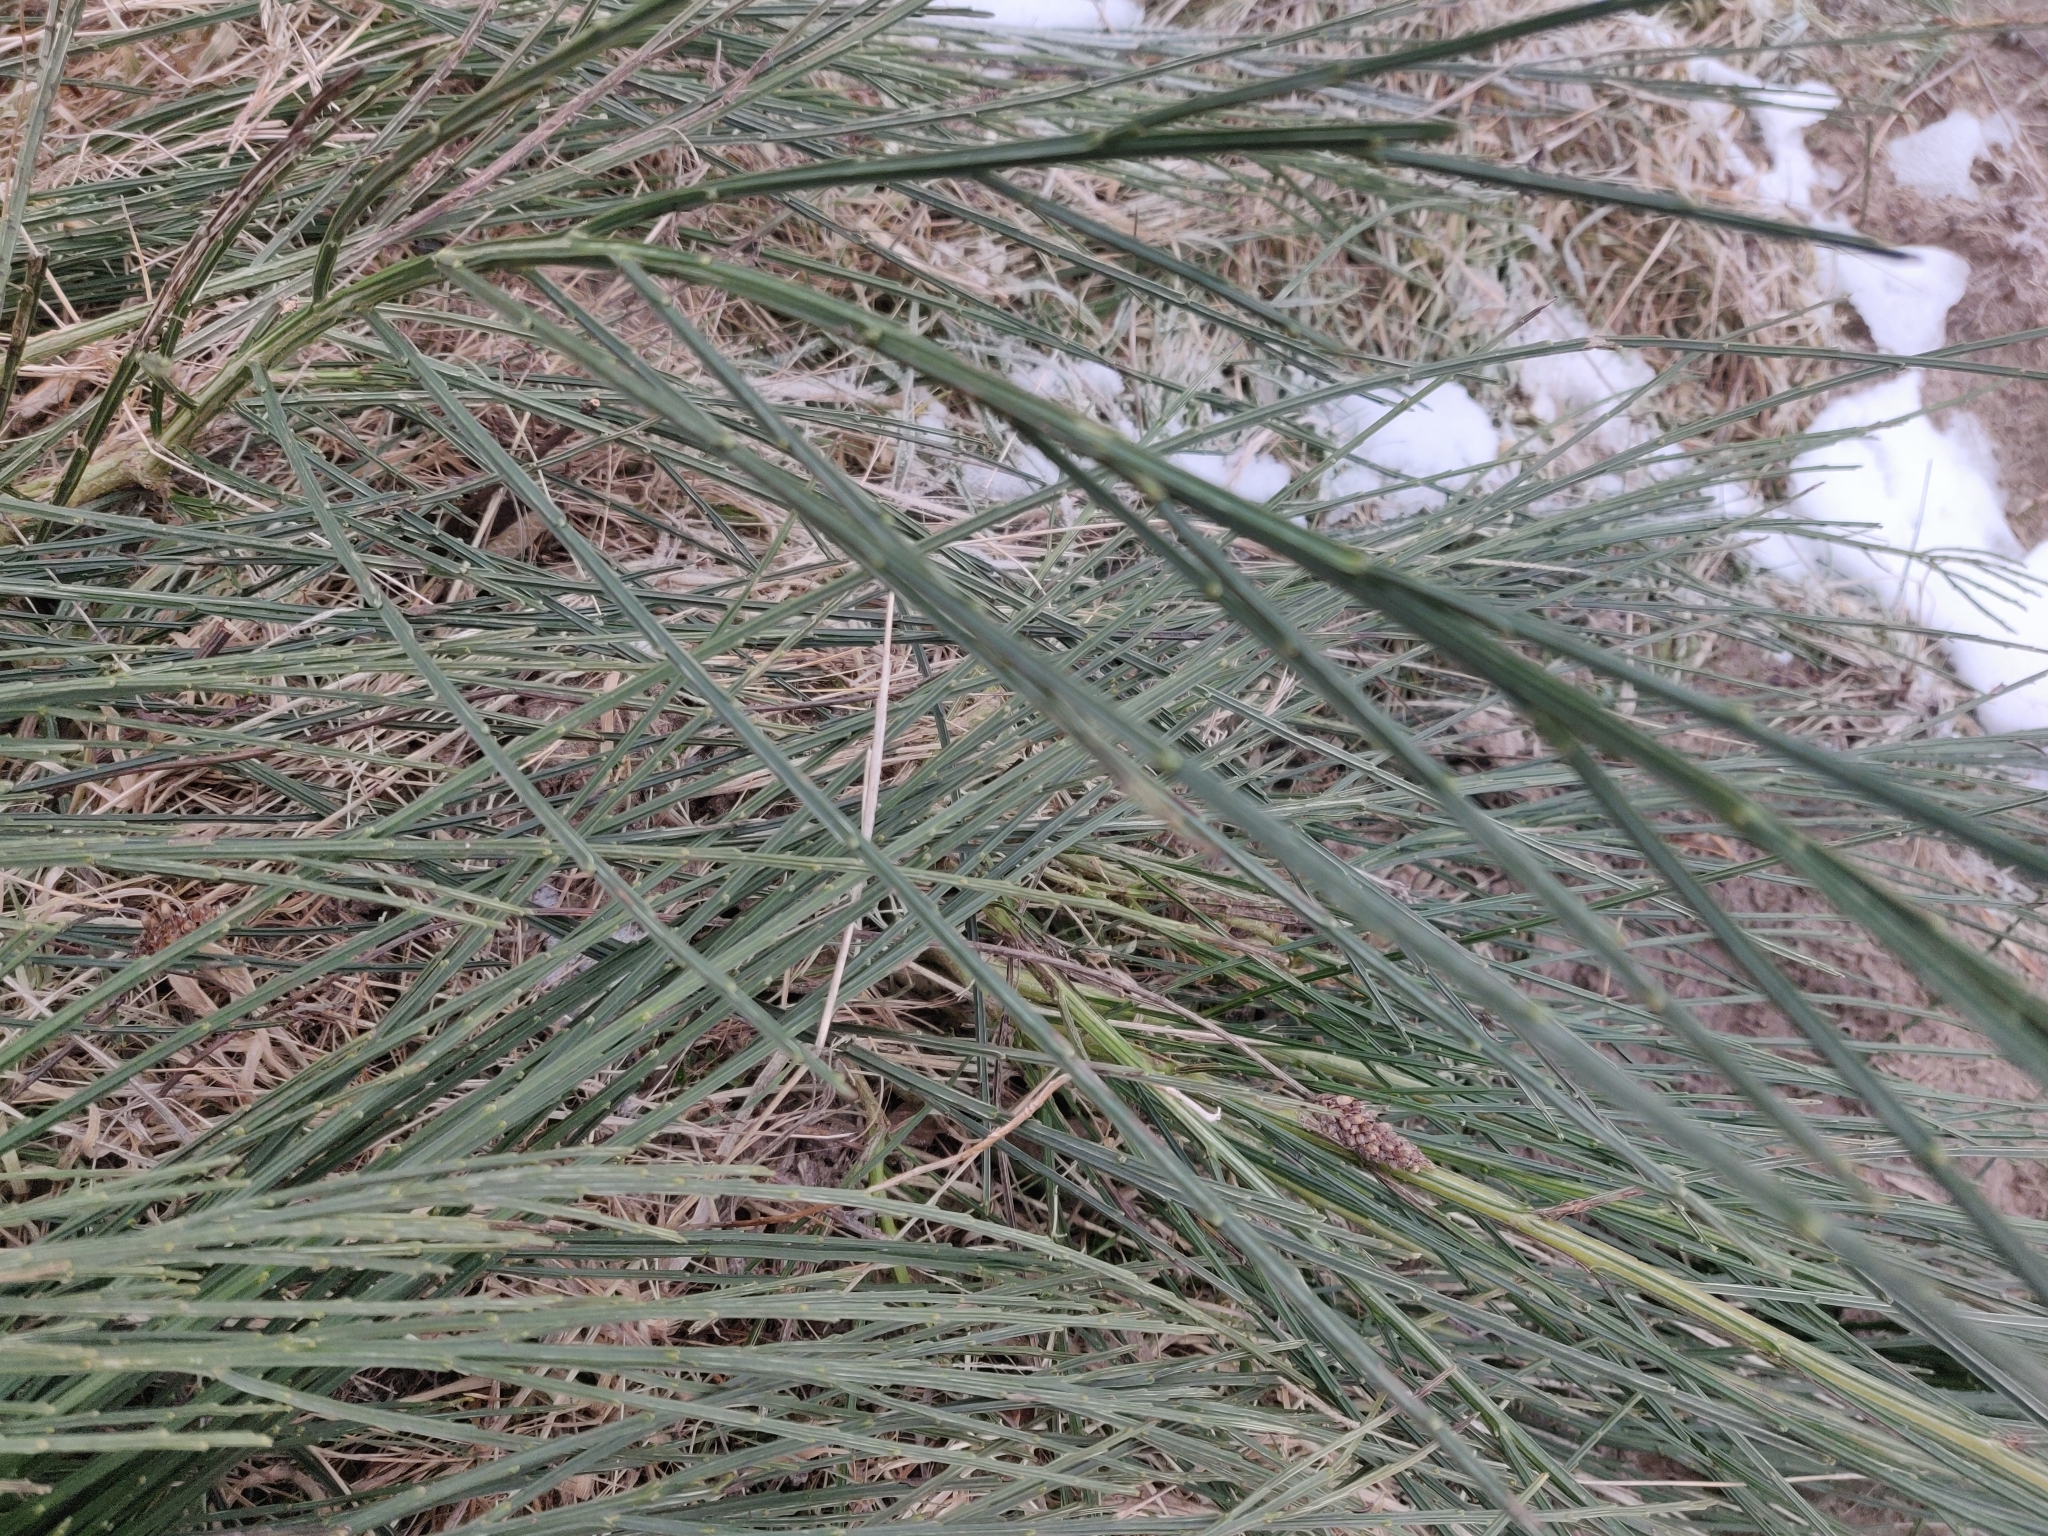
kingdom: Plantae
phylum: Tracheophyta
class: Magnoliopsida
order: Fabales
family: Fabaceae
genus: Cytisus
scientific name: Cytisus scoparius
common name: Scotch broom
